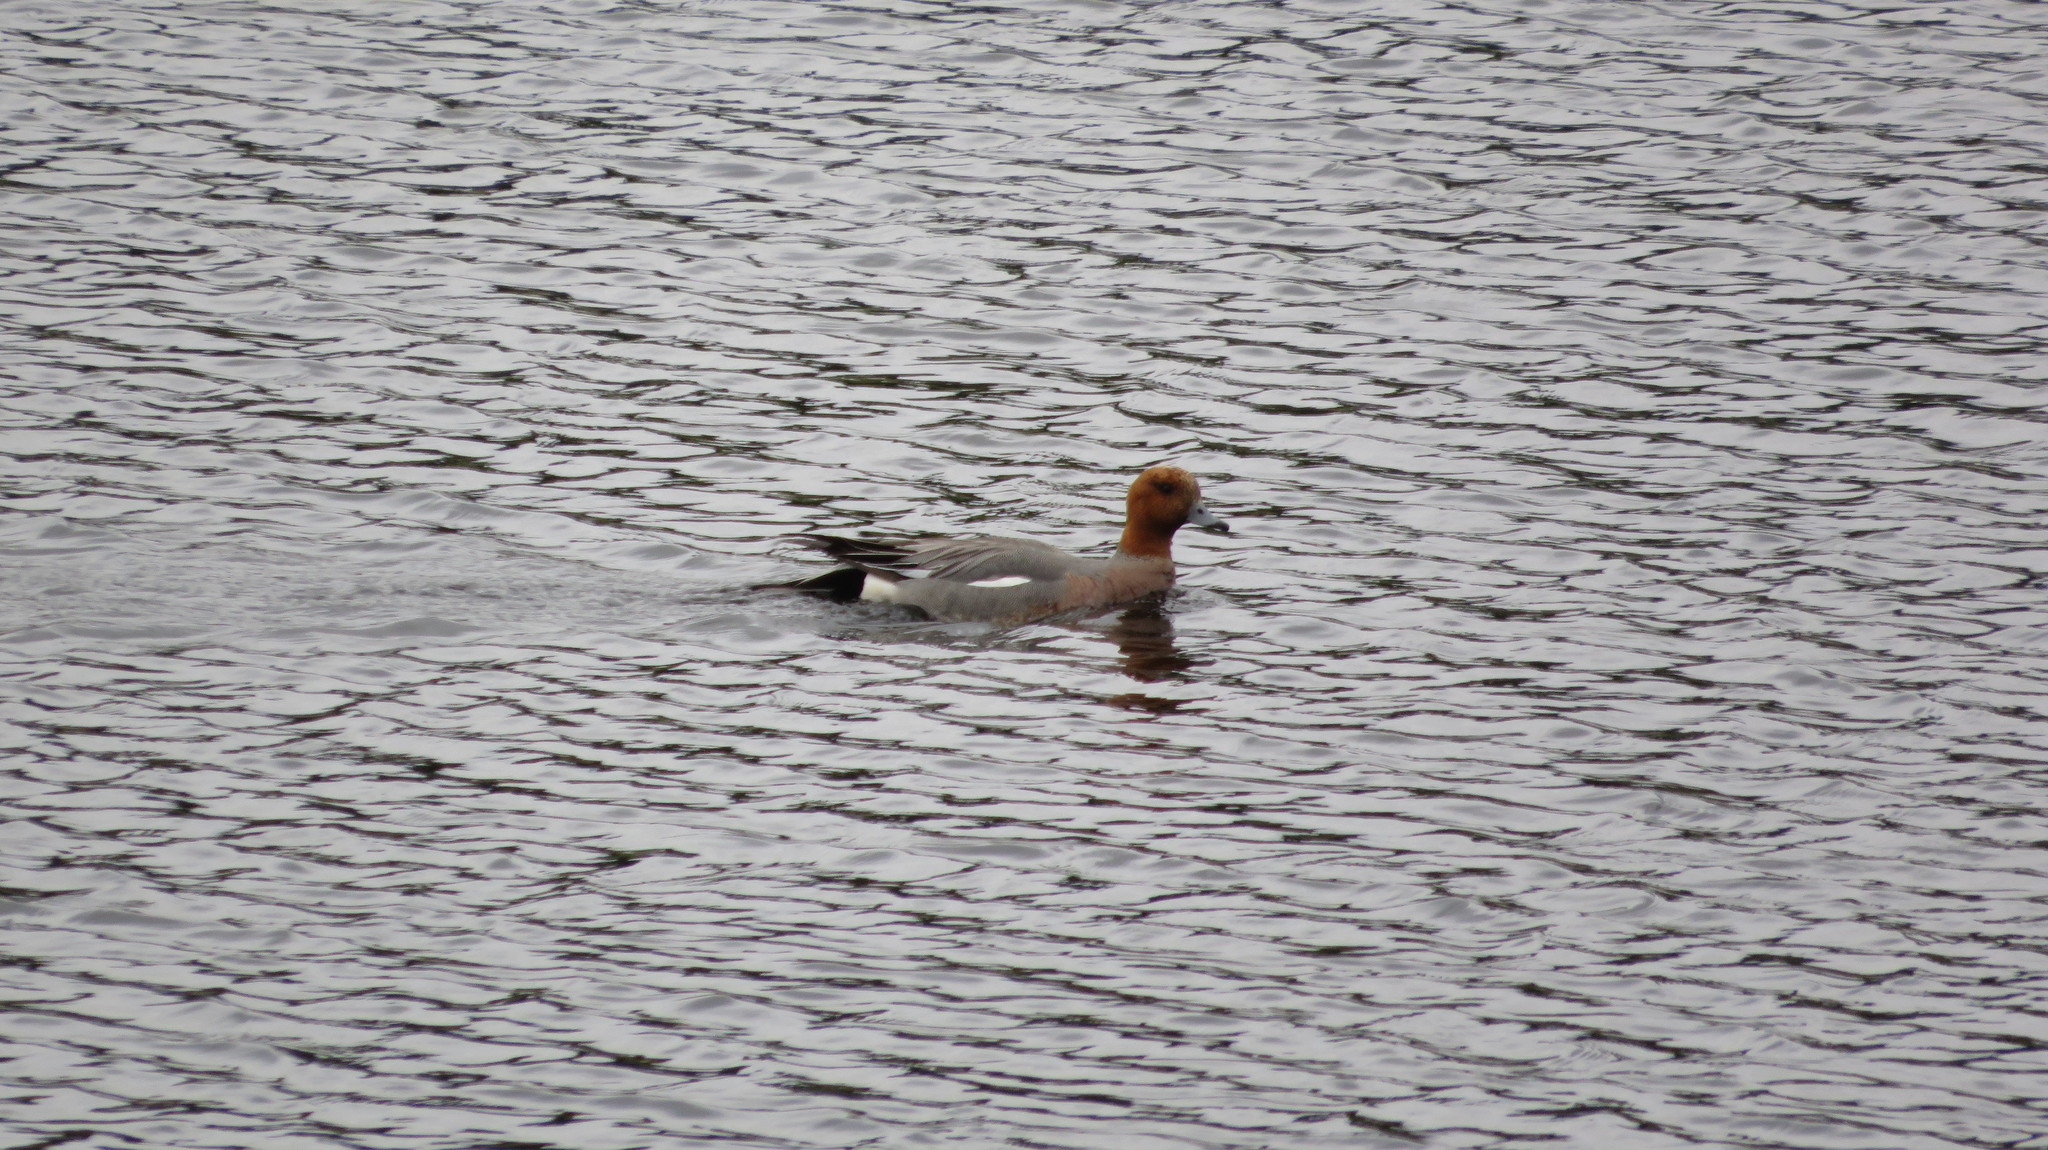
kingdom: Animalia
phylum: Chordata
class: Aves
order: Anseriformes
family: Anatidae
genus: Mareca
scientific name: Mareca penelope
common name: Eurasian wigeon
